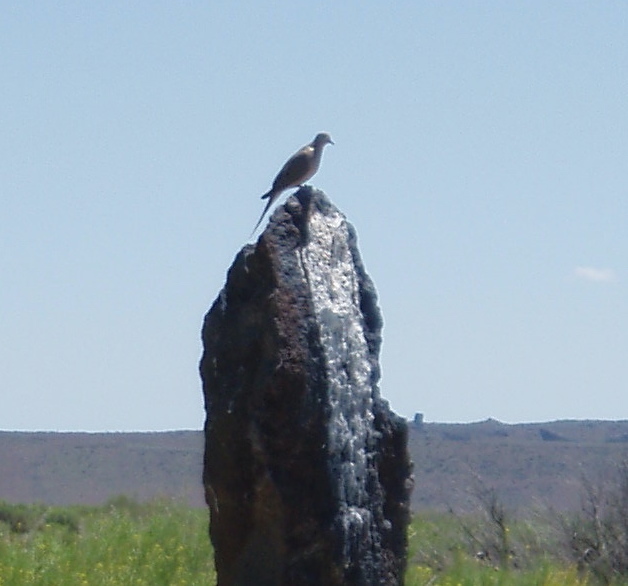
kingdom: Animalia
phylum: Chordata
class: Aves
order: Columbiformes
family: Columbidae
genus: Zenaida
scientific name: Zenaida macroura
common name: Mourning dove
